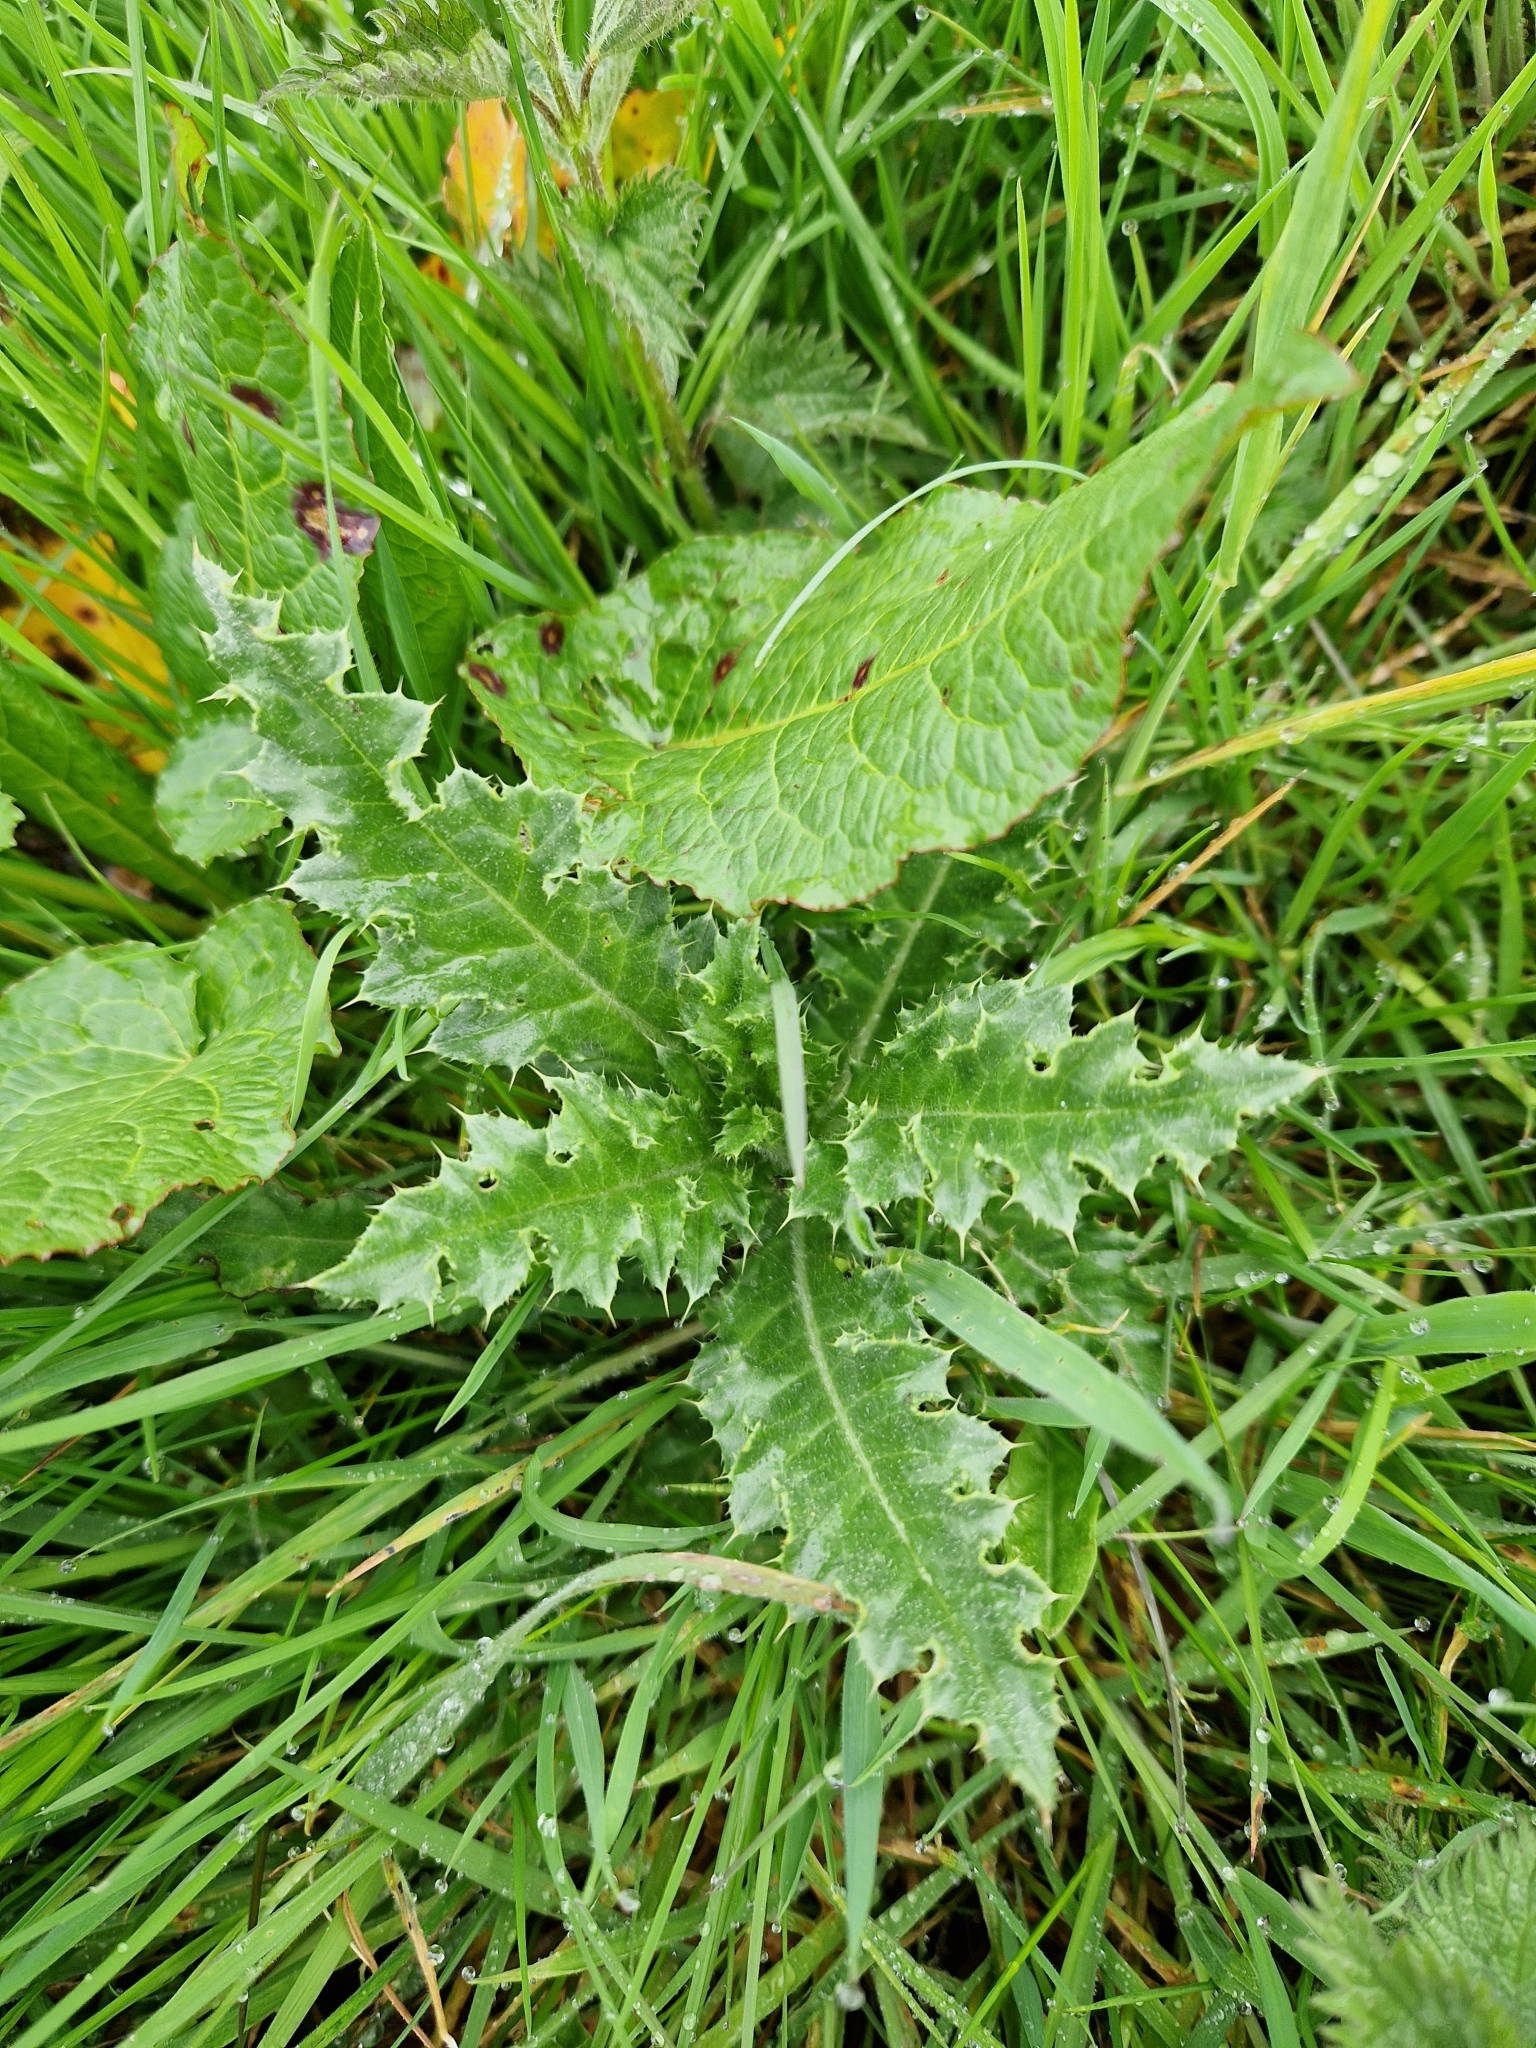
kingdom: Plantae
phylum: Tracheophyta
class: Magnoliopsida
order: Asterales
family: Asteraceae
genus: Cirsium
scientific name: Cirsium arvense
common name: Creeping thistle
